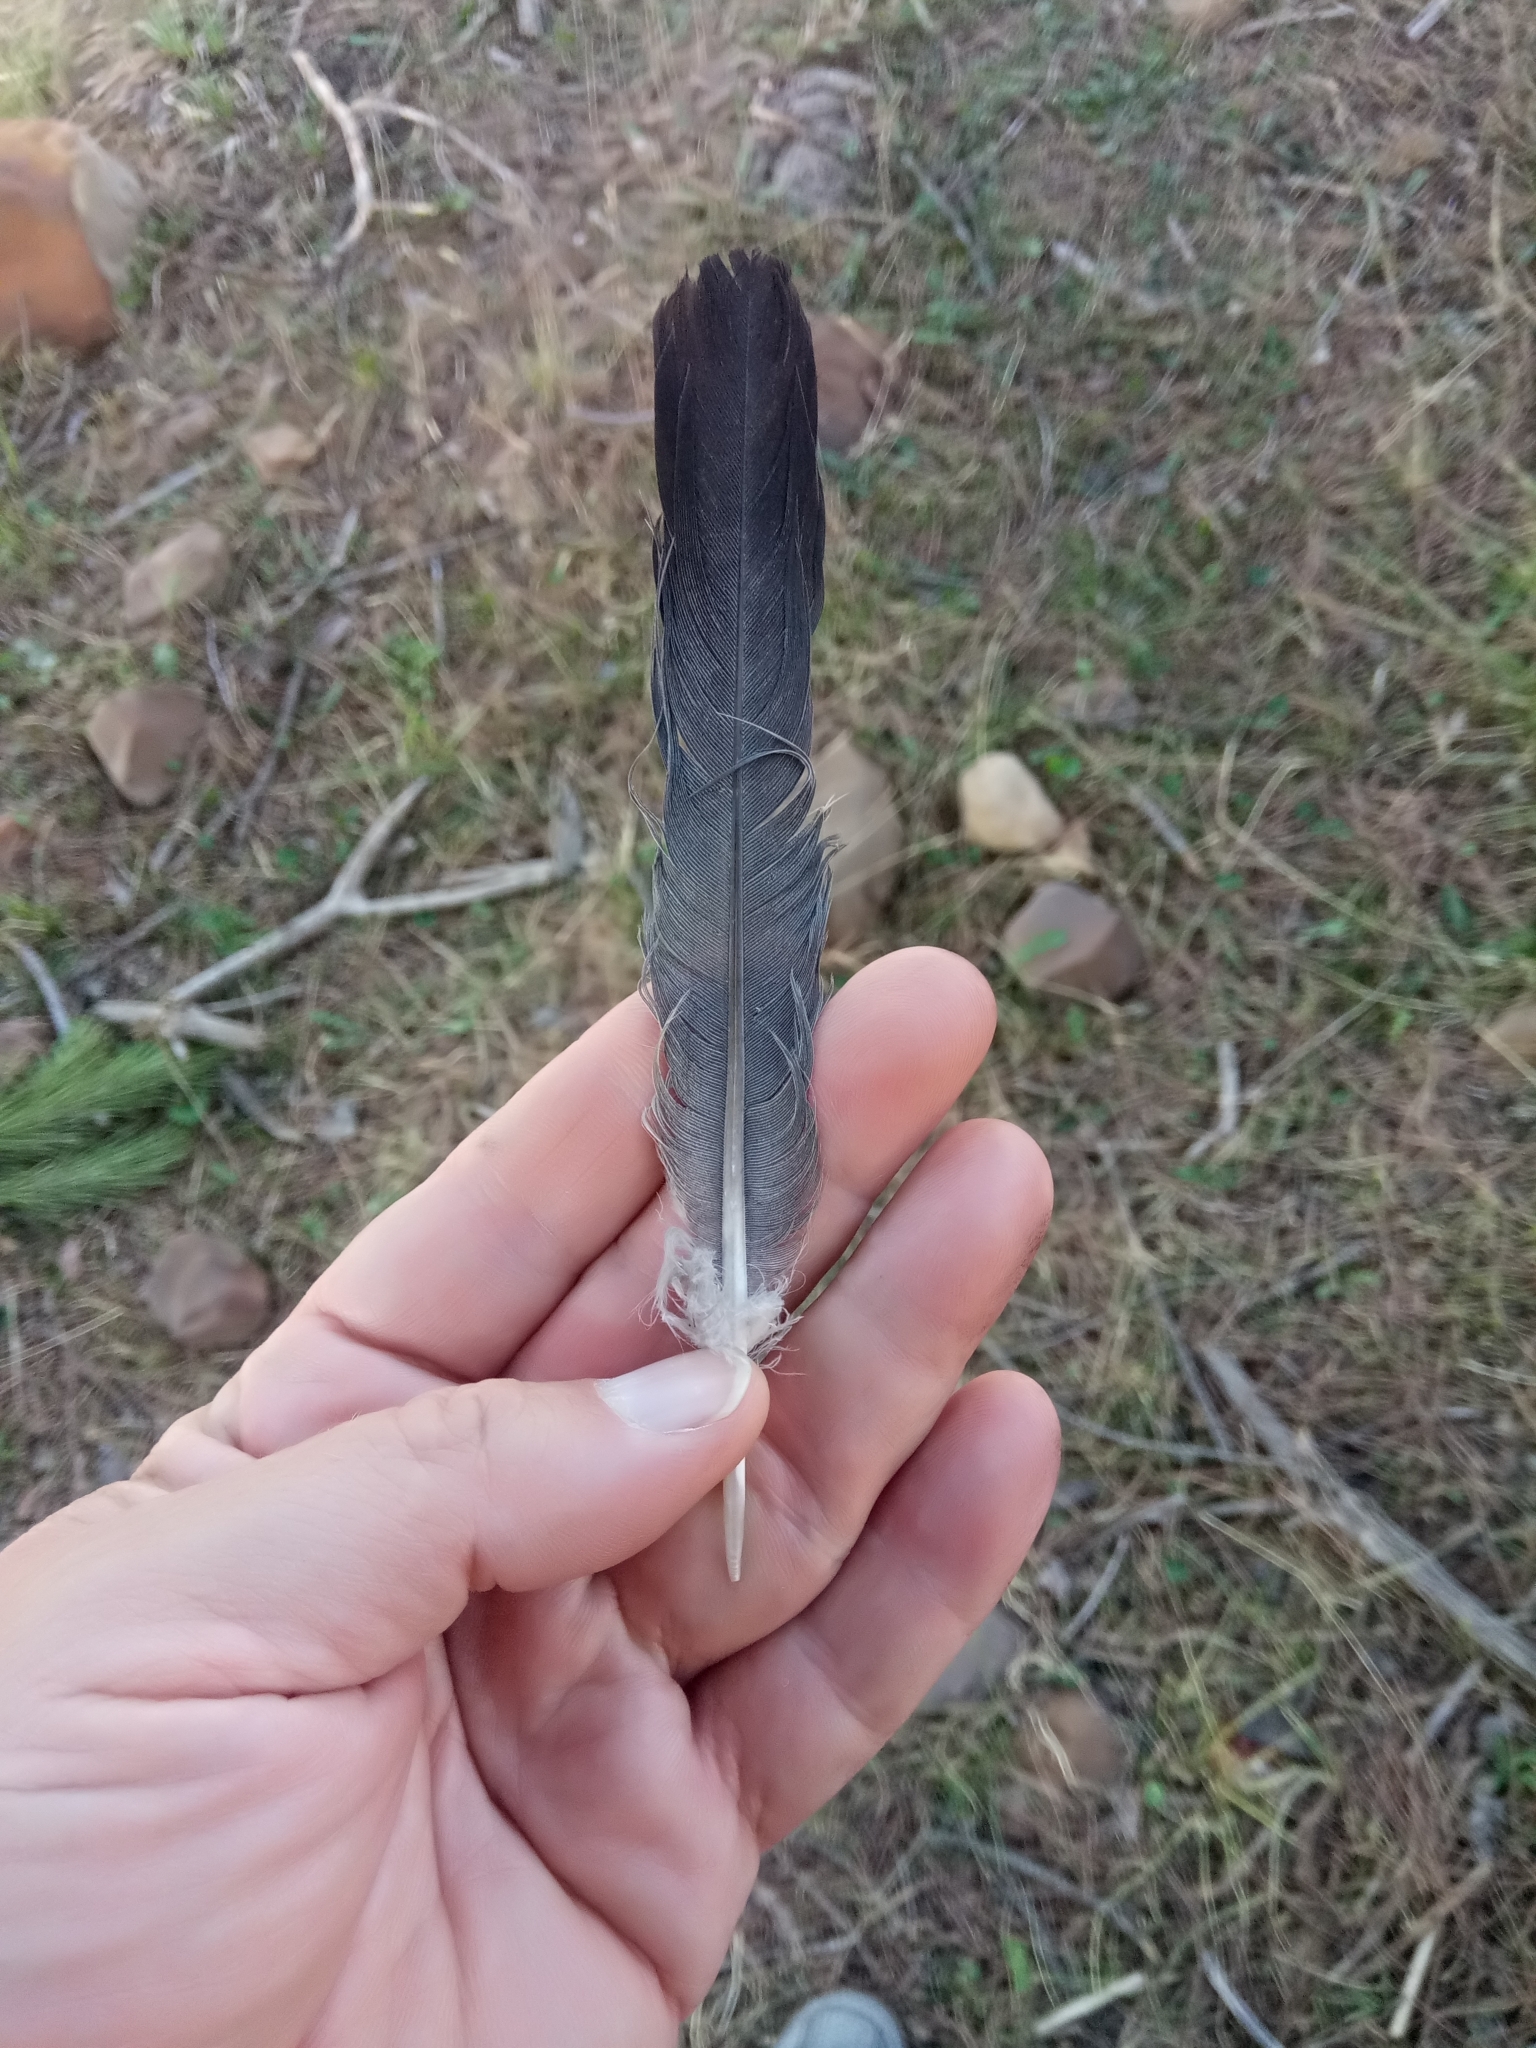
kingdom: Animalia
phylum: Chordata
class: Aves
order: Columbiformes
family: Columbidae
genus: Columba
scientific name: Columba palumbus
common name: Common wood pigeon
